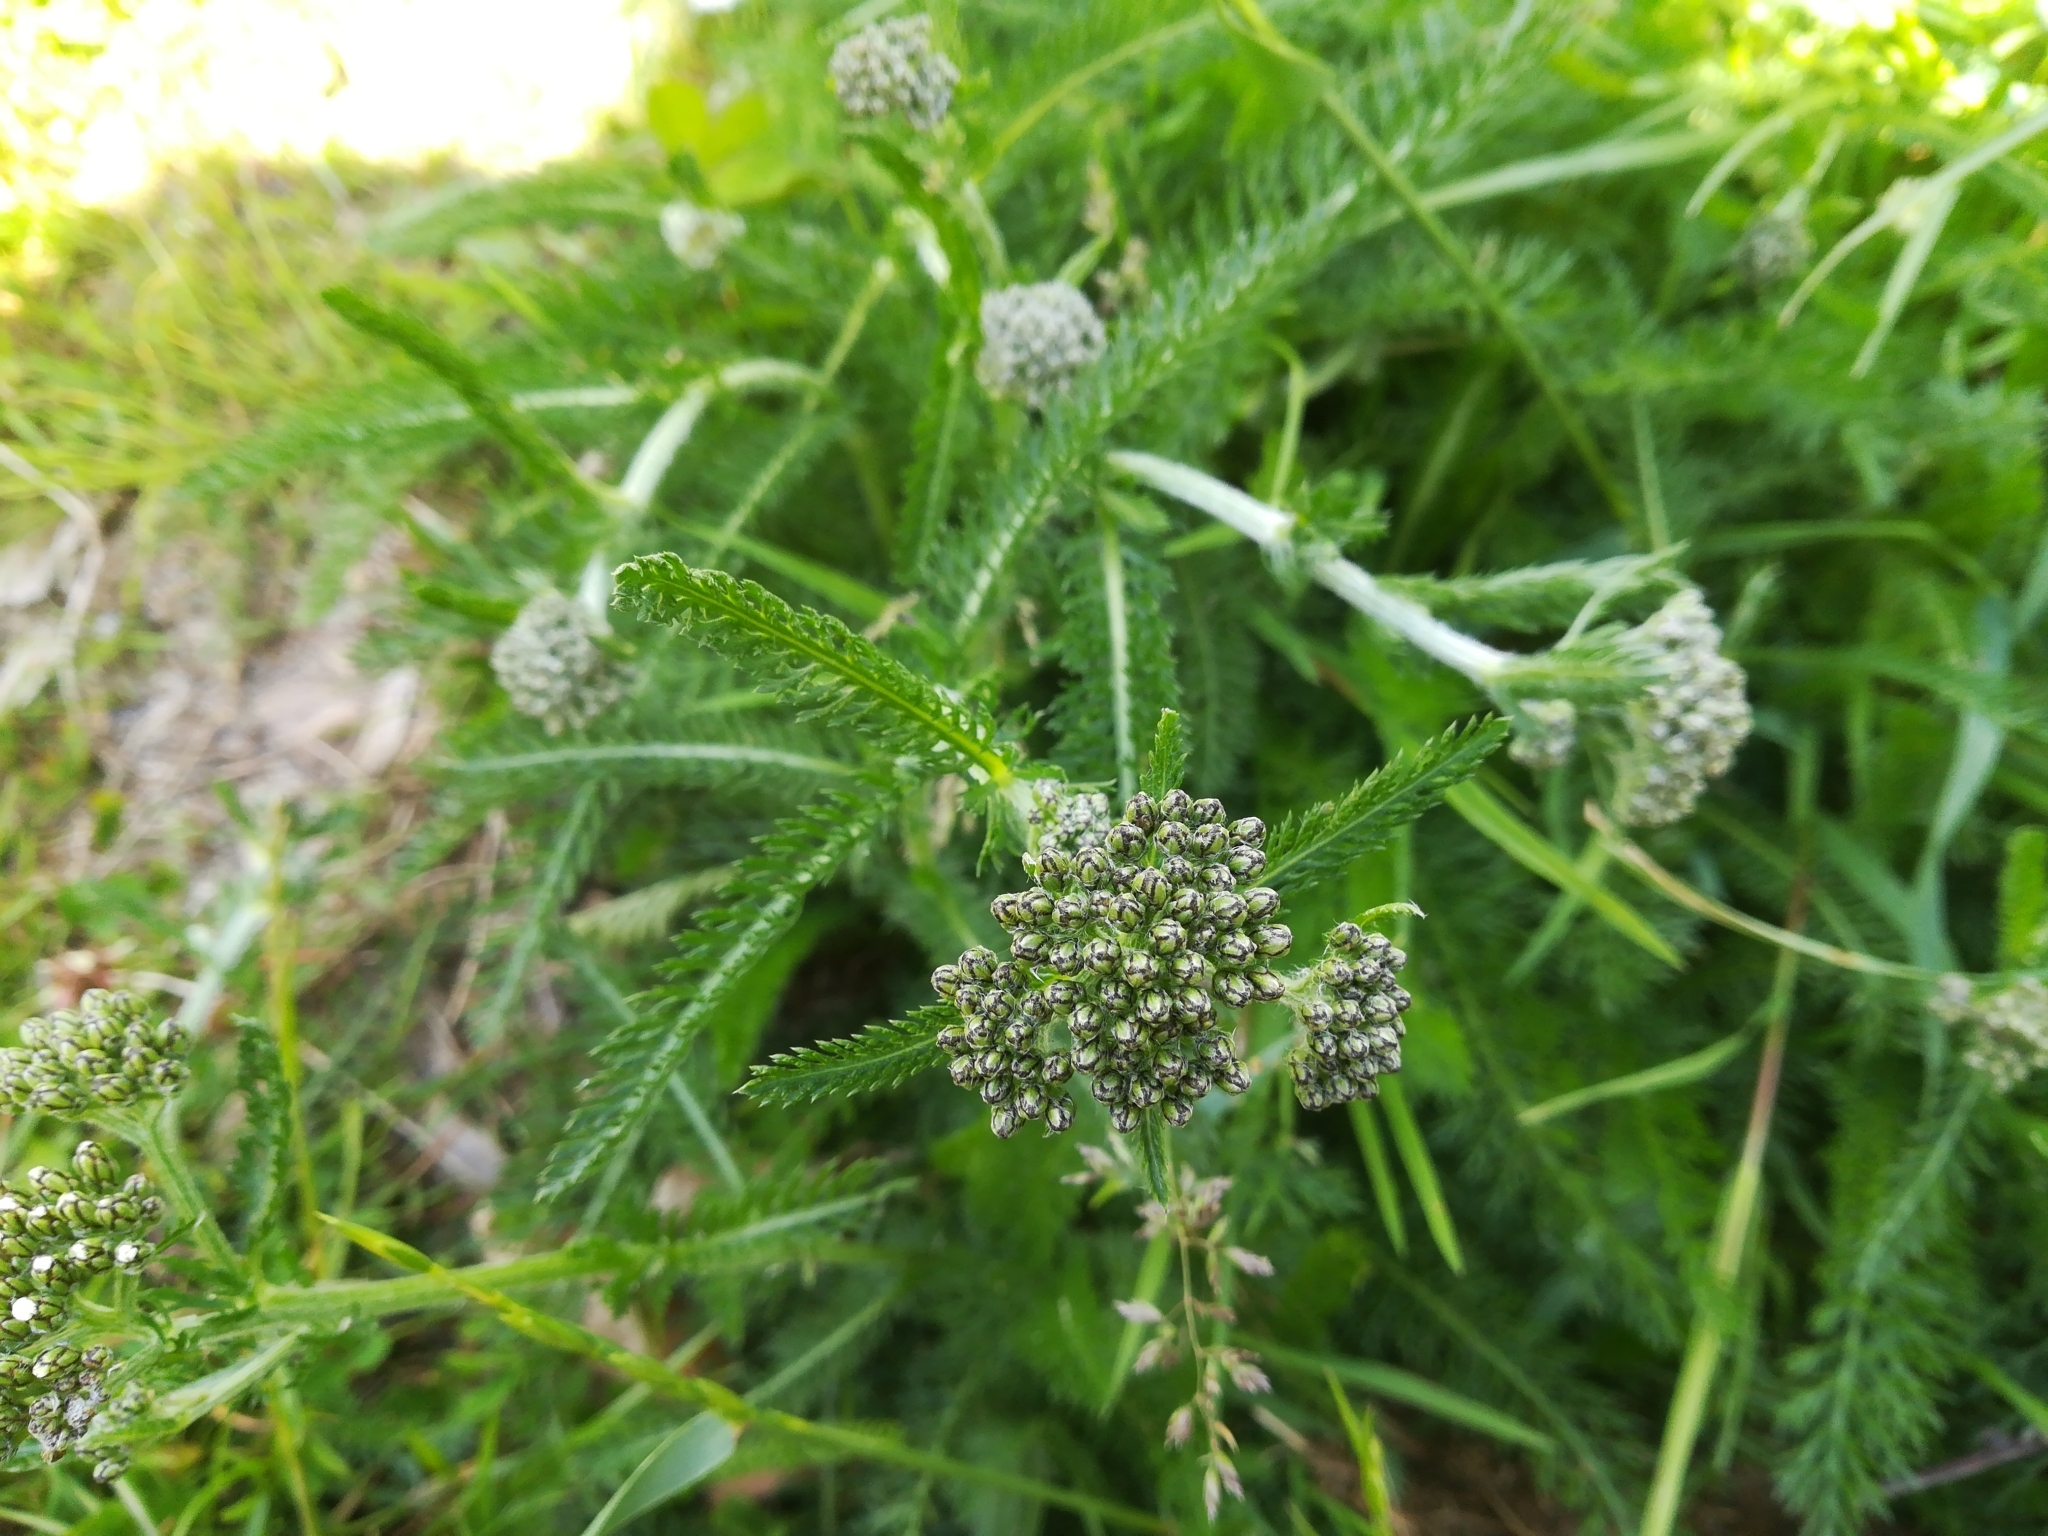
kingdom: Plantae
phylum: Tracheophyta
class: Magnoliopsida
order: Asterales
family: Asteraceae
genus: Achillea
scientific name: Achillea millefolium
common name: Yarrow
